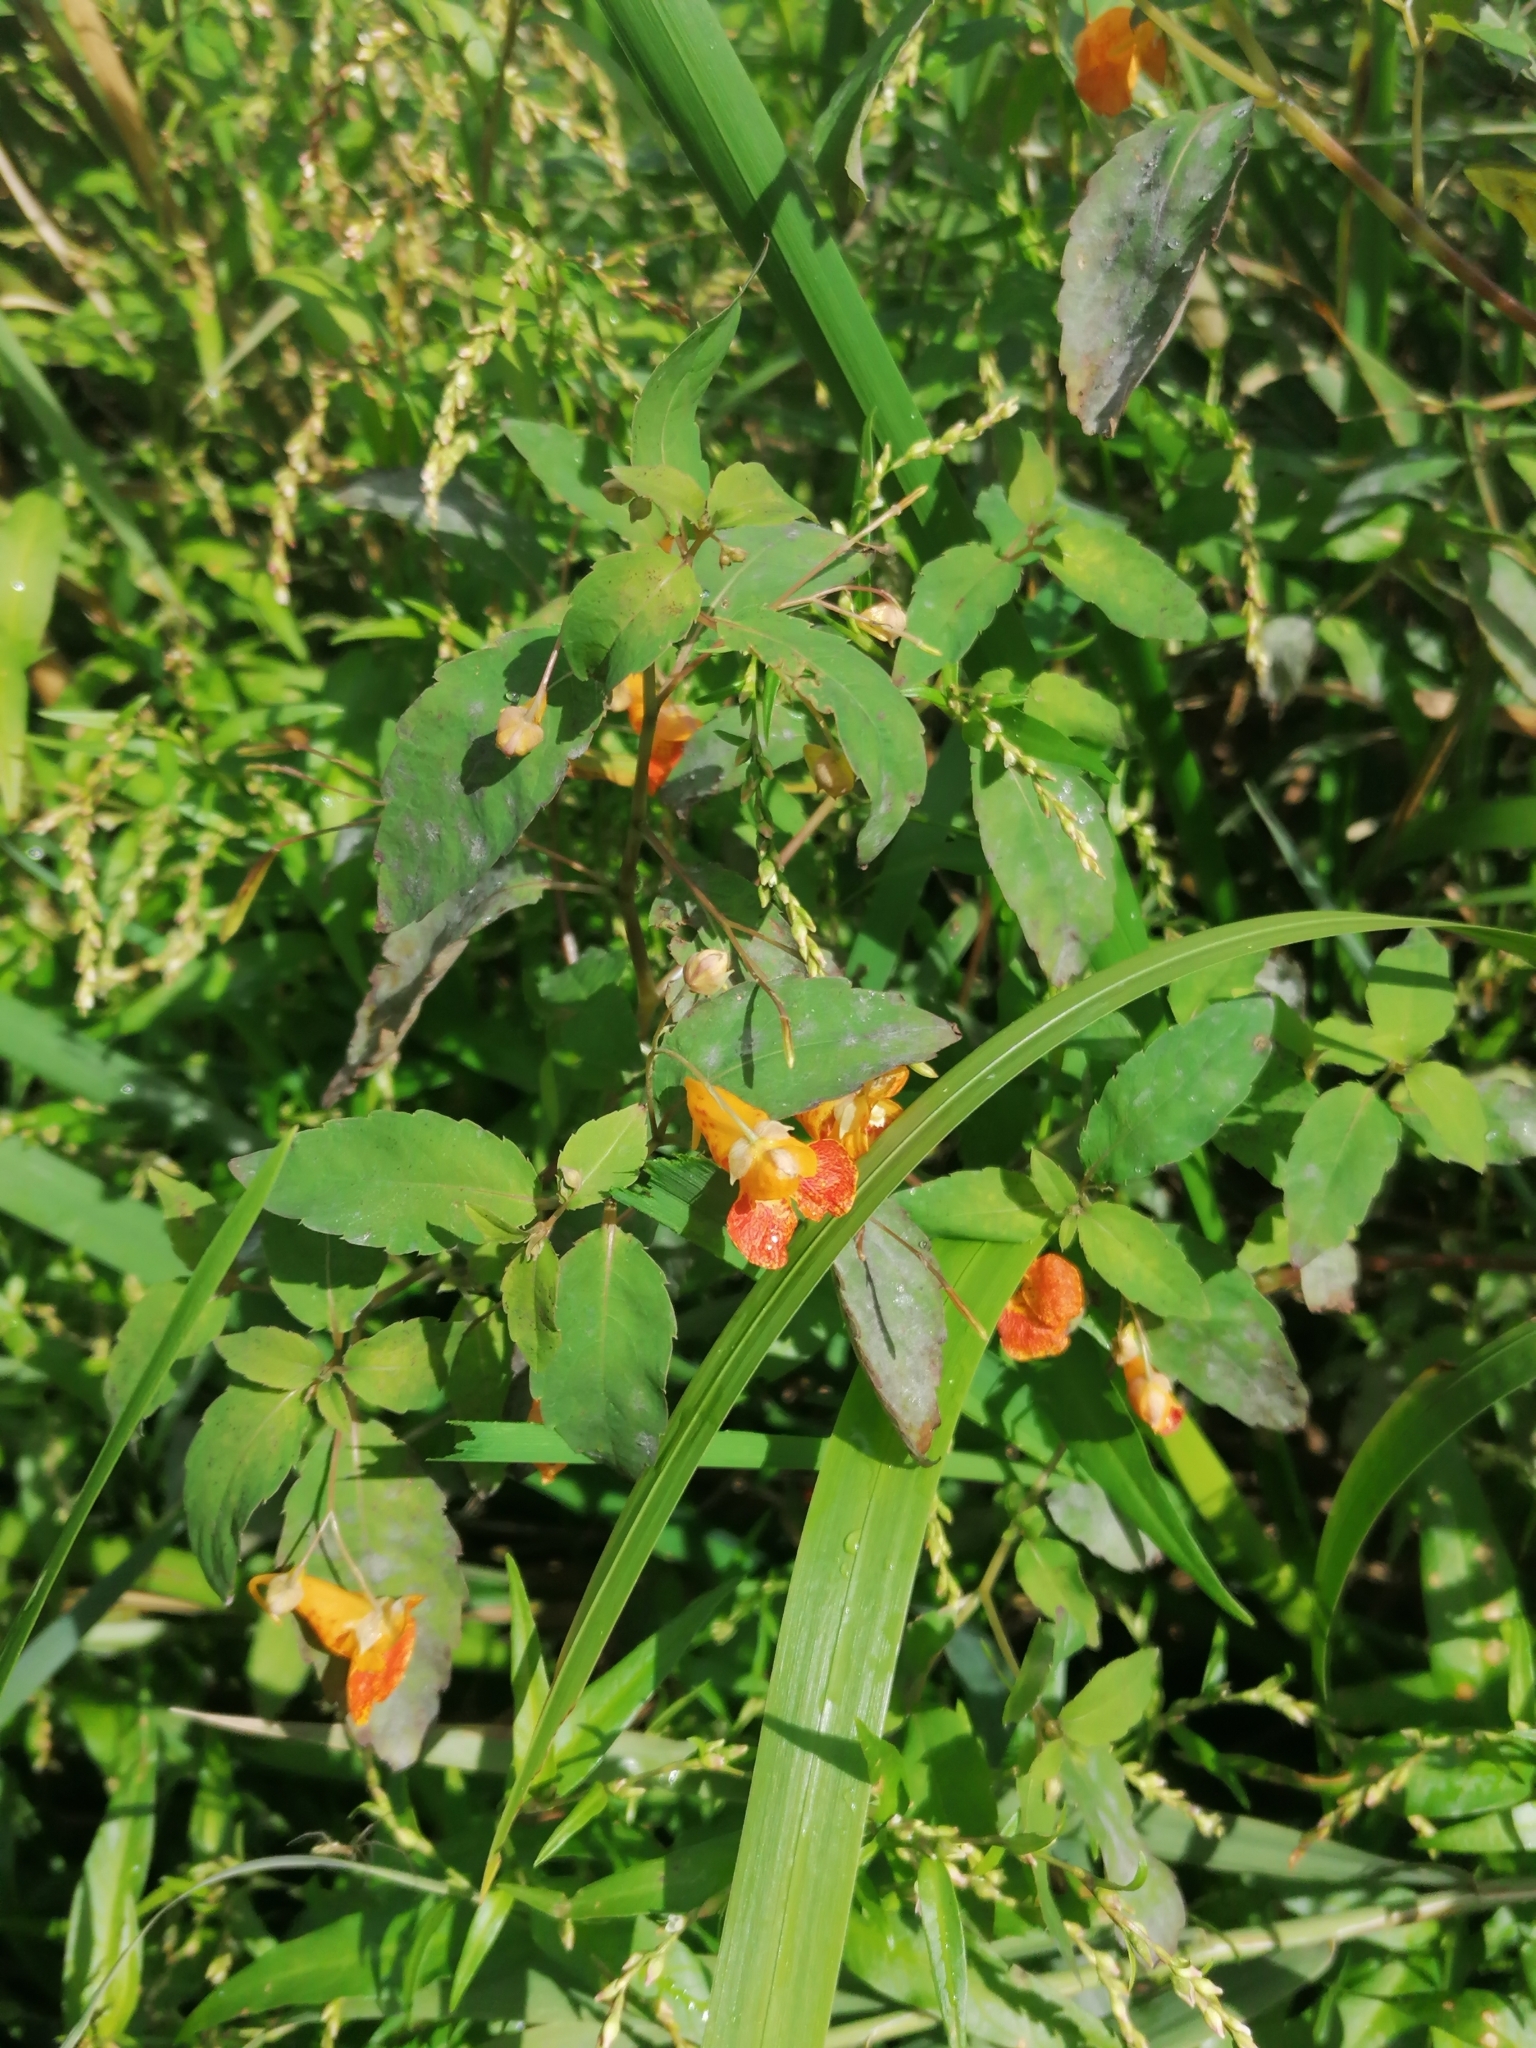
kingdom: Plantae
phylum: Tracheophyta
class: Magnoliopsida
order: Ericales
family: Balsaminaceae
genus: Impatiens
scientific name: Impatiens capensis
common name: Orange balsam
